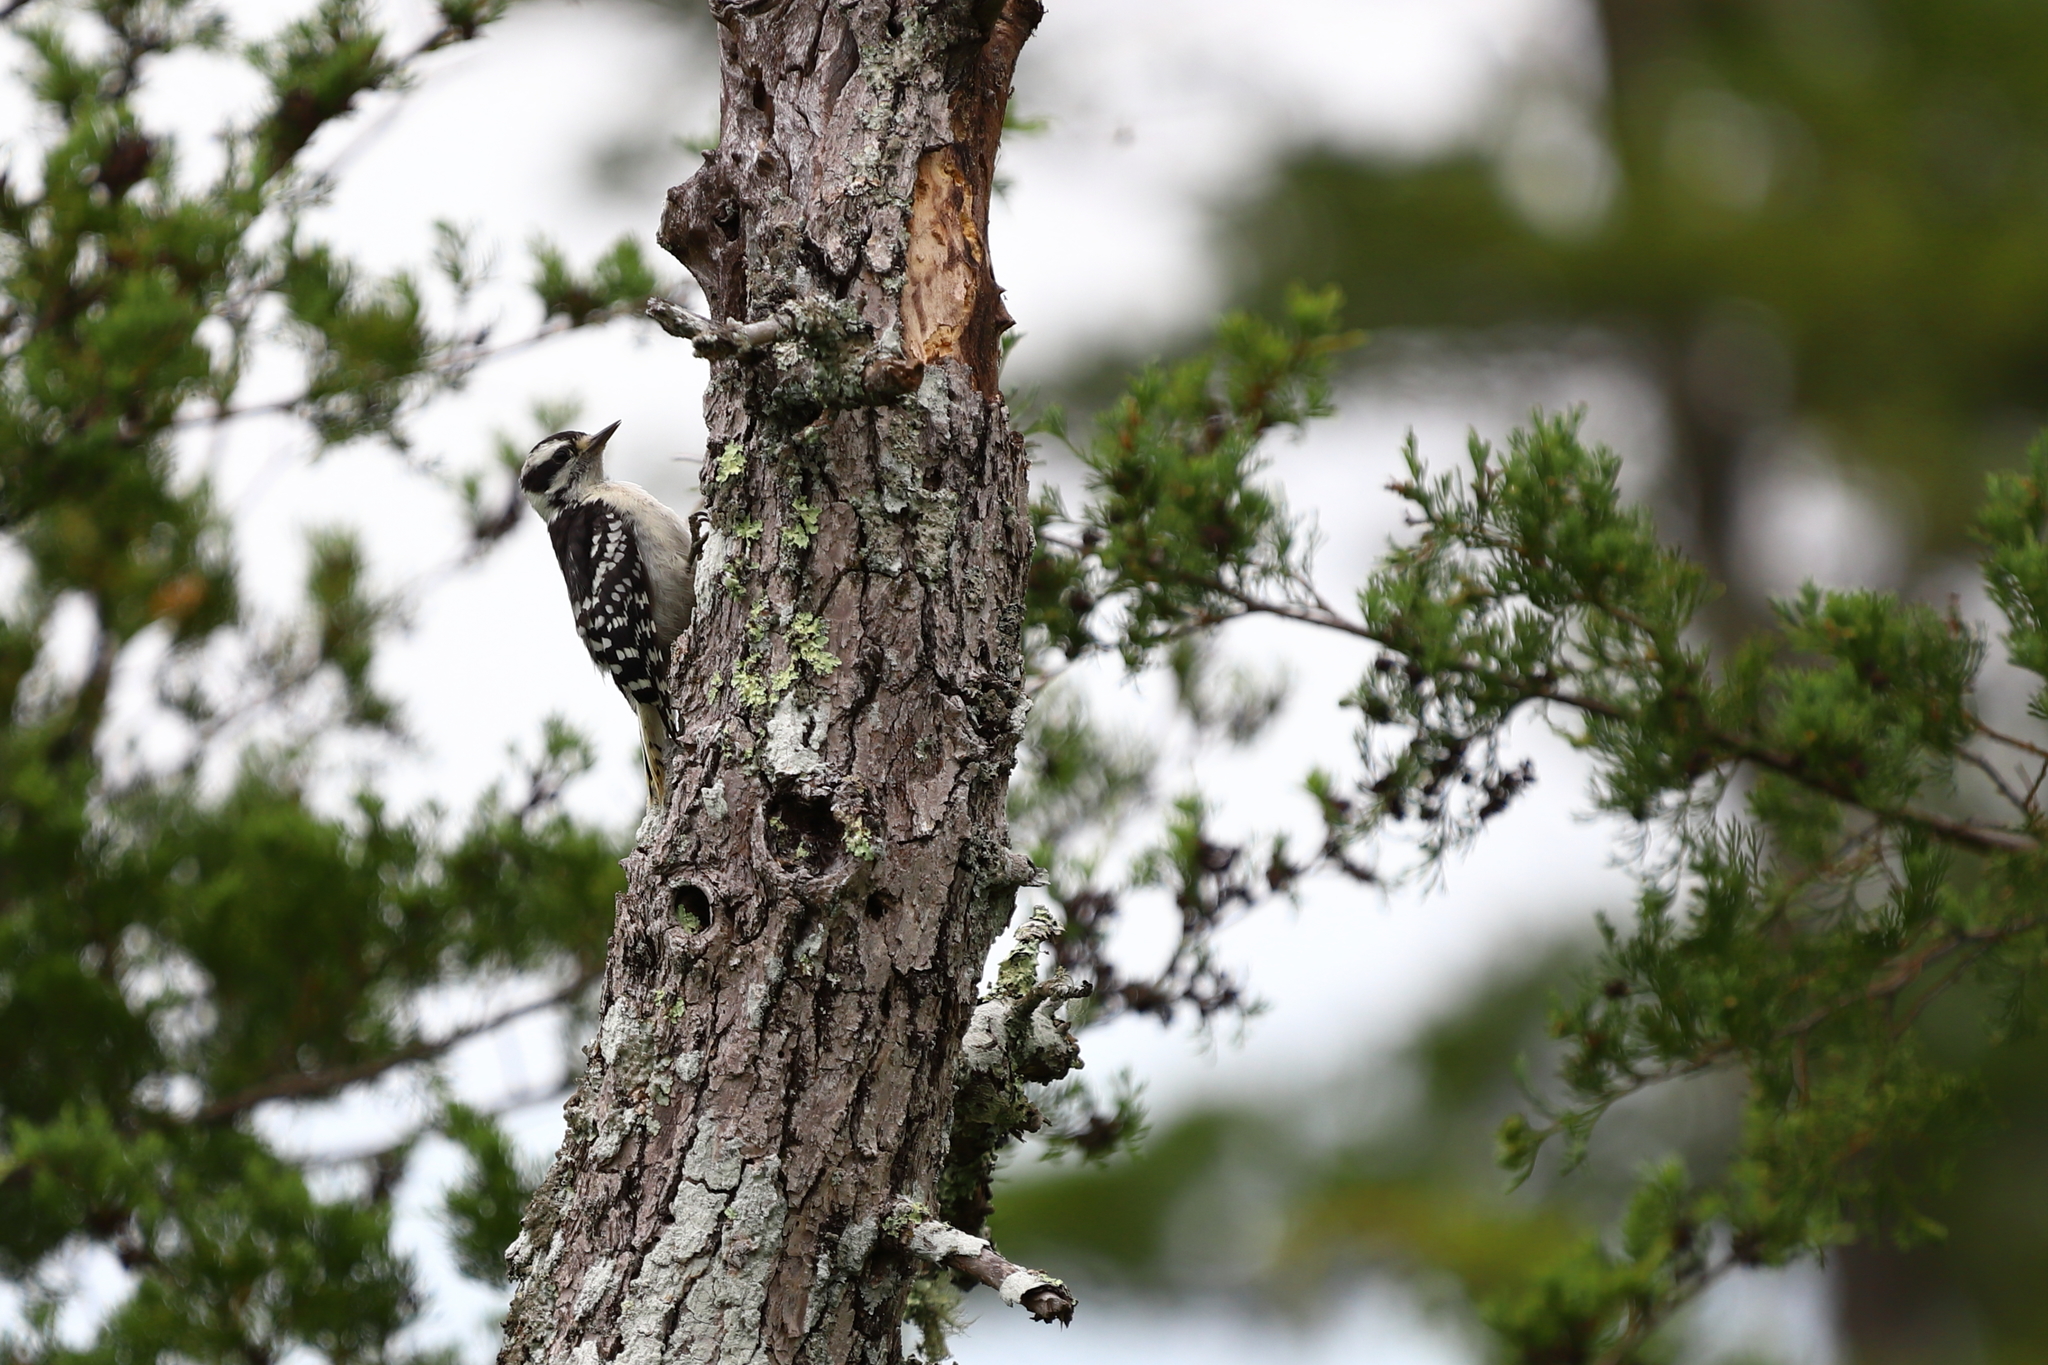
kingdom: Animalia
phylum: Chordata
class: Aves
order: Piciformes
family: Picidae
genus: Dryobates
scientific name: Dryobates pubescens
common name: Downy woodpecker
